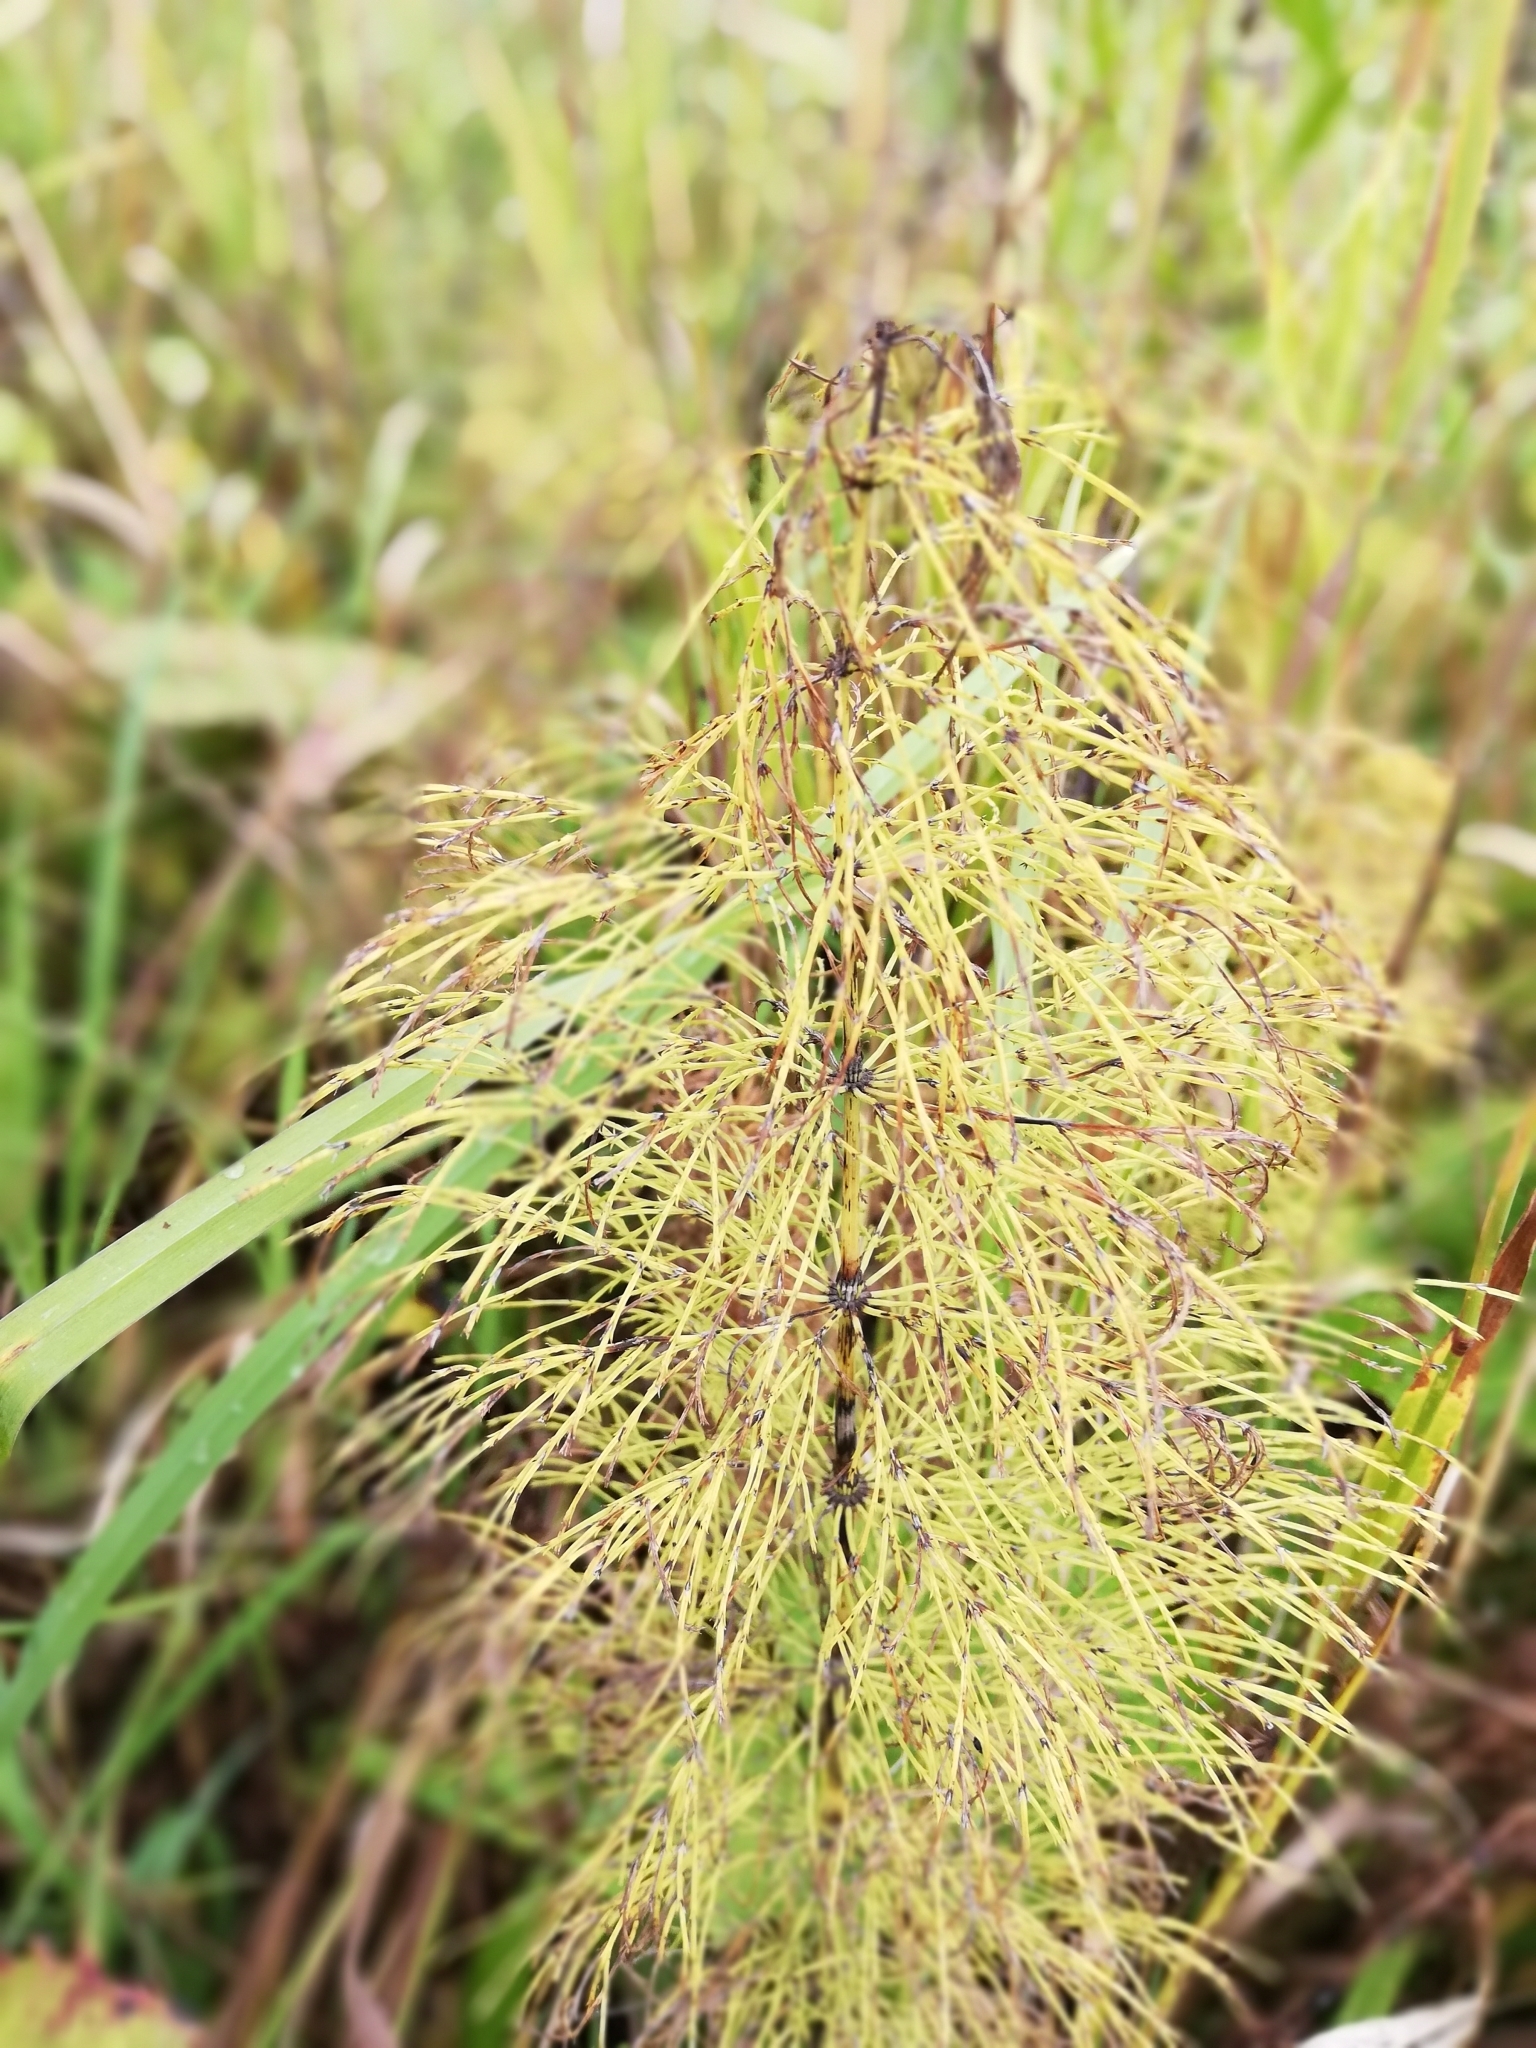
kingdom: Plantae
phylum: Tracheophyta
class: Polypodiopsida
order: Equisetales
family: Equisetaceae
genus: Equisetum
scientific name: Equisetum sylvaticum
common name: Wood horsetail
